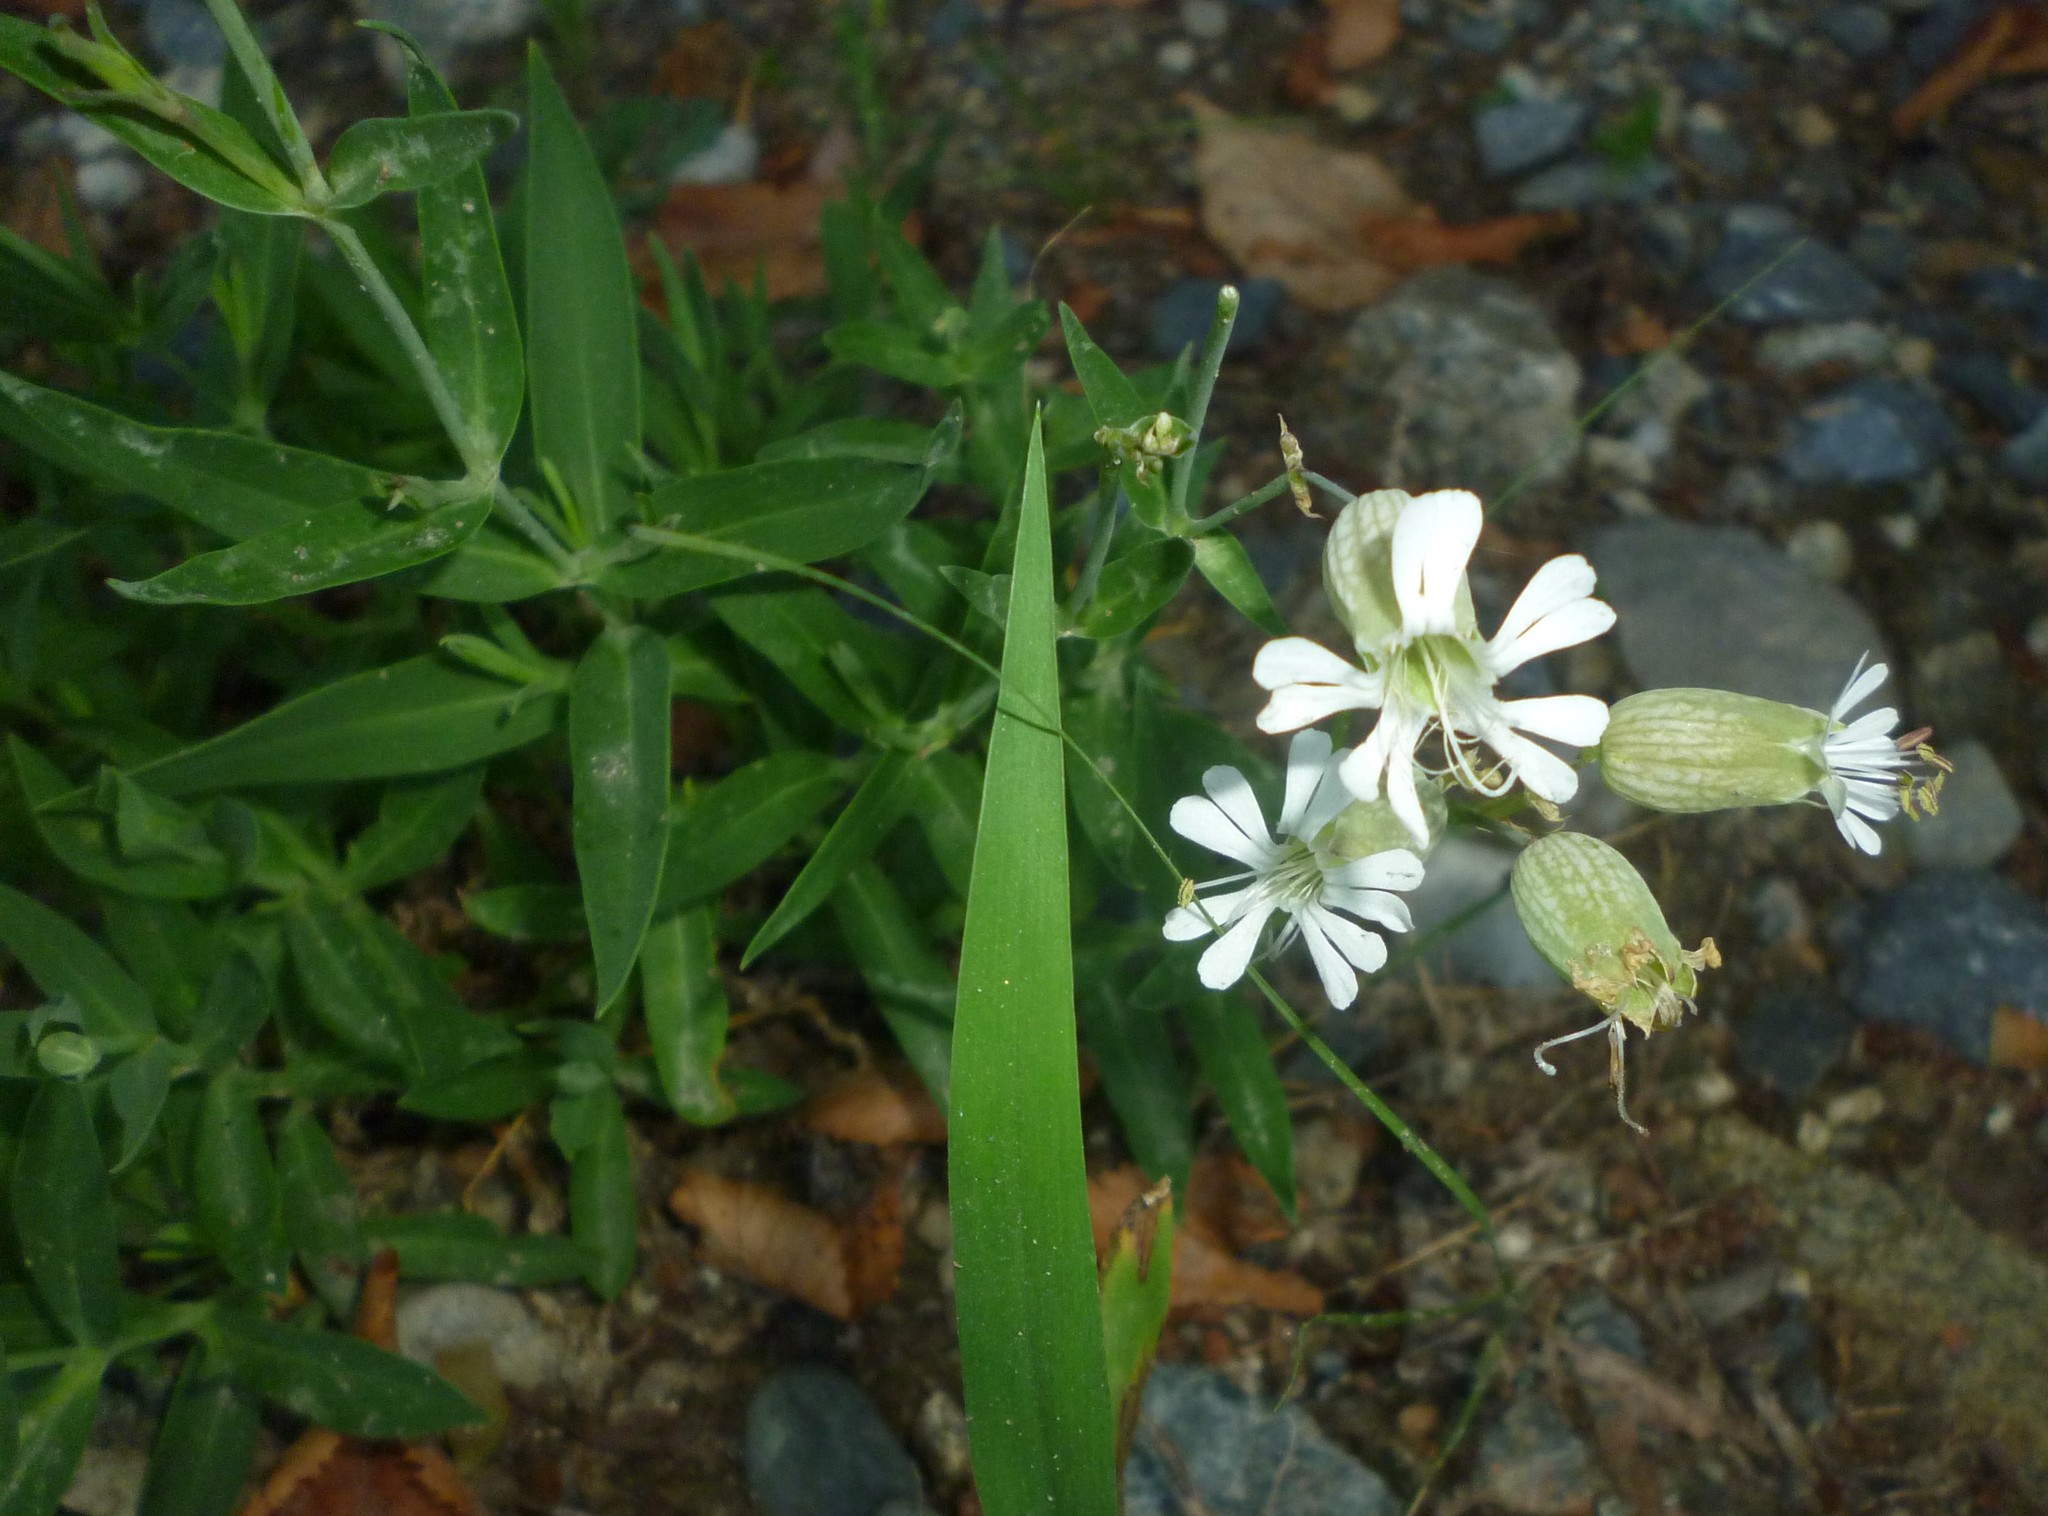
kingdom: Plantae
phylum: Tracheophyta
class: Magnoliopsida
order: Caryophyllales
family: Caryophyllaceae
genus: Silene
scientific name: Silene vulgaris
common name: Bladder campion
